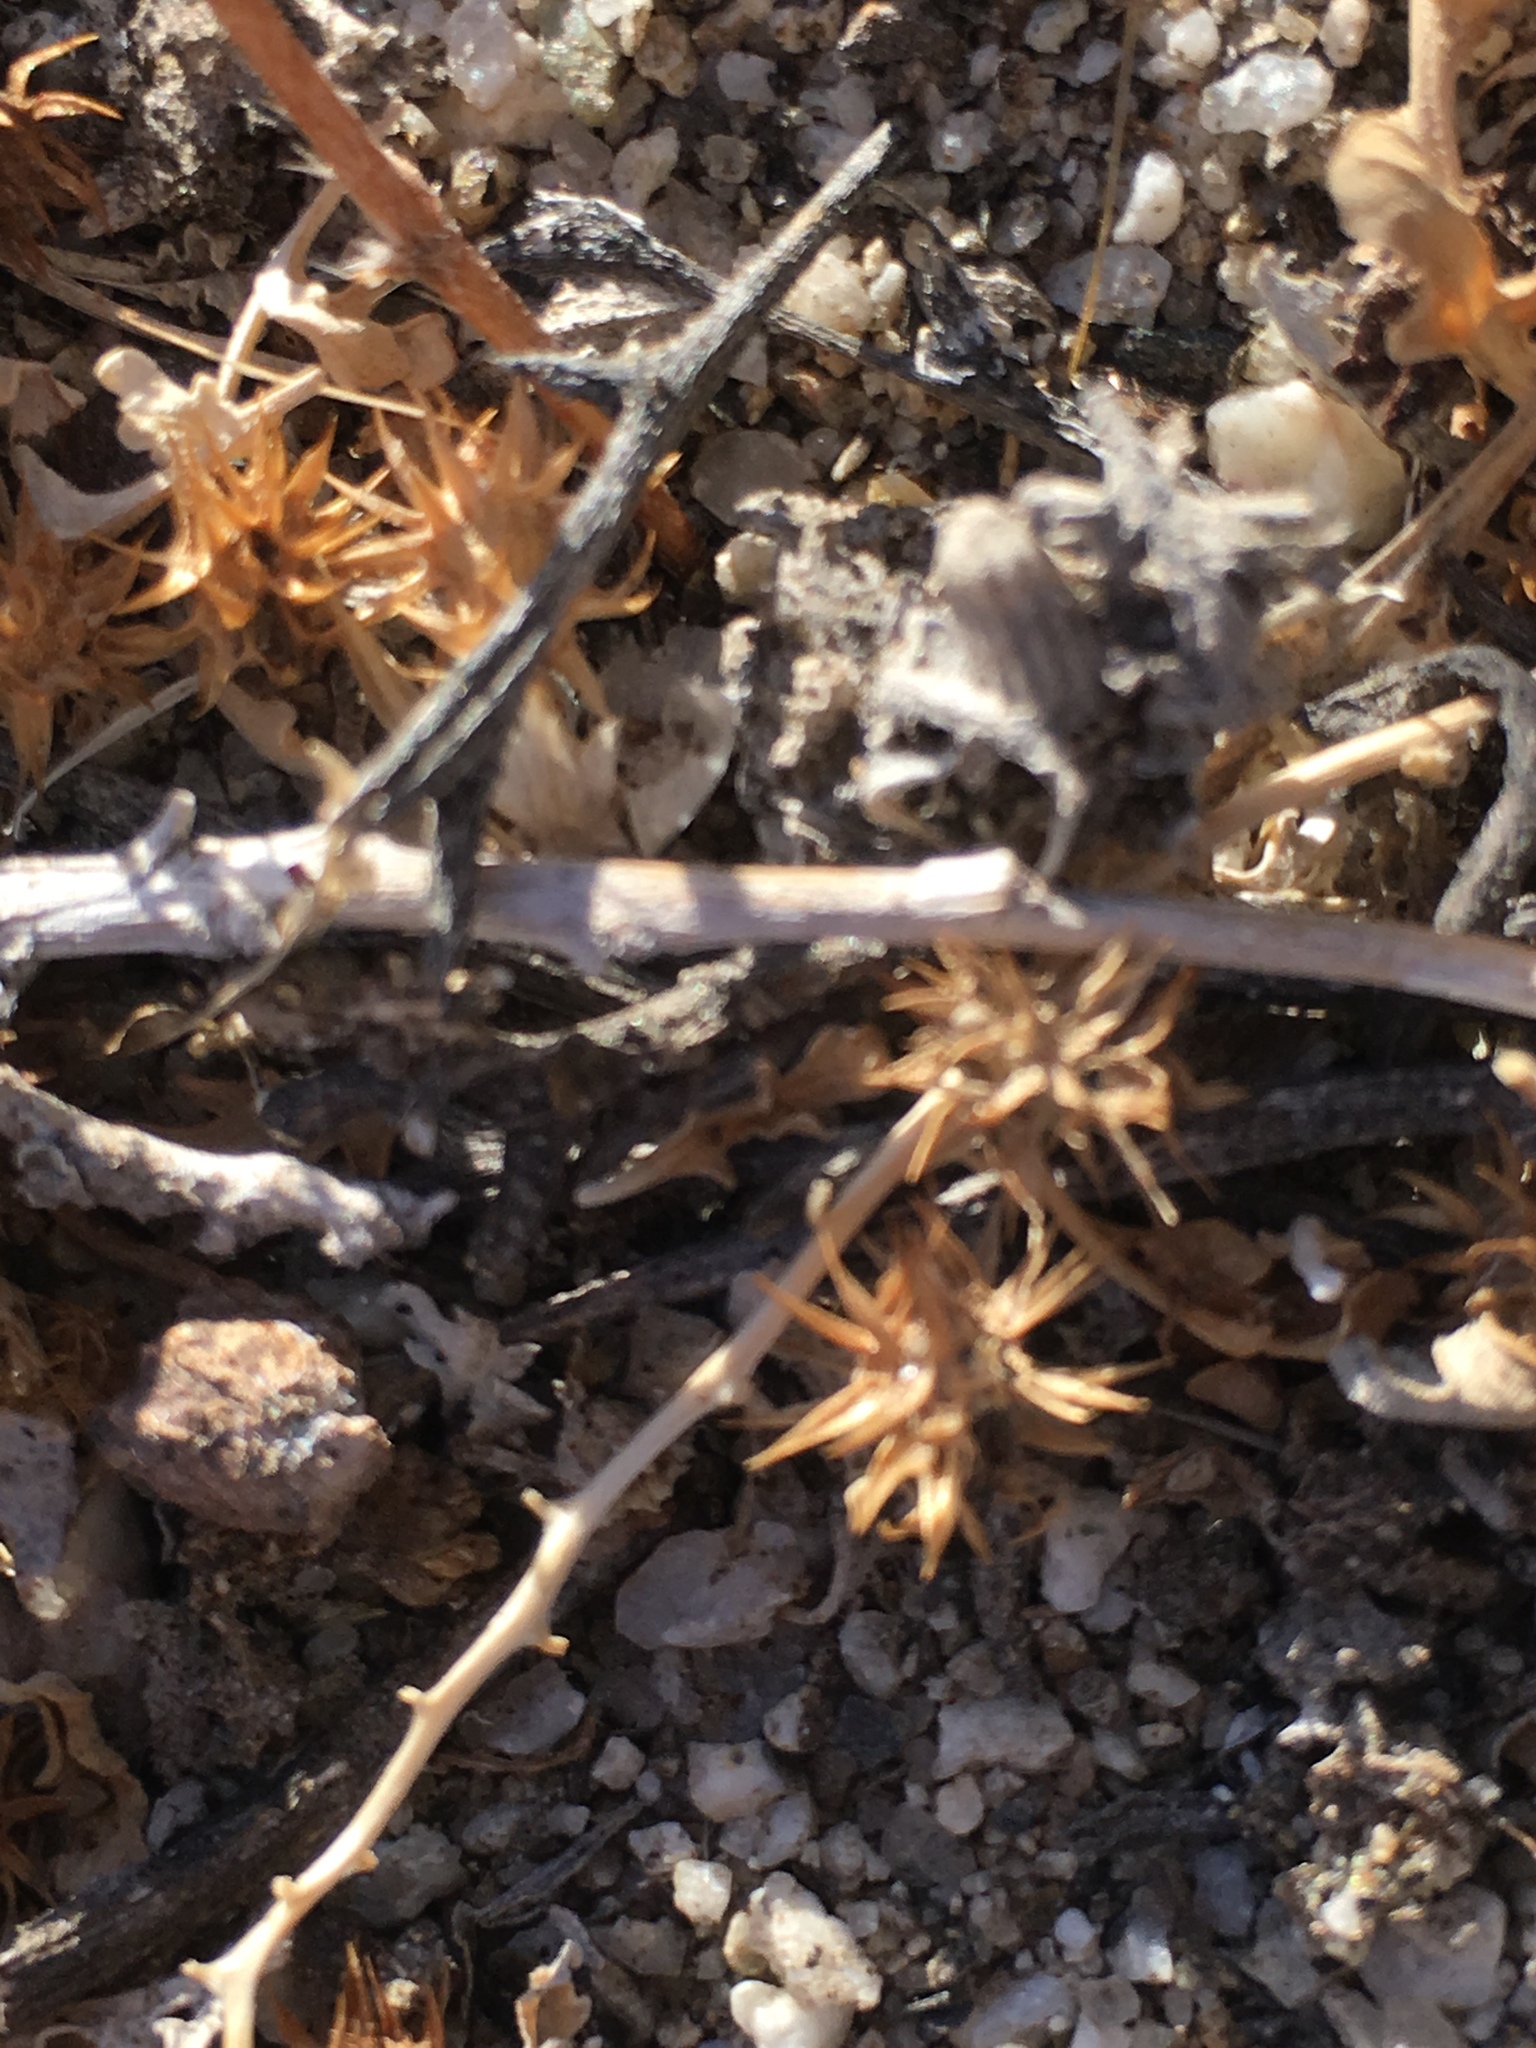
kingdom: Plantae
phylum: Tracheophyta
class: Magnoliopsida
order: Asterales
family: Asteraceae
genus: Ambrosia
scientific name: Ambrosia dumosa
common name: Bur-sage
